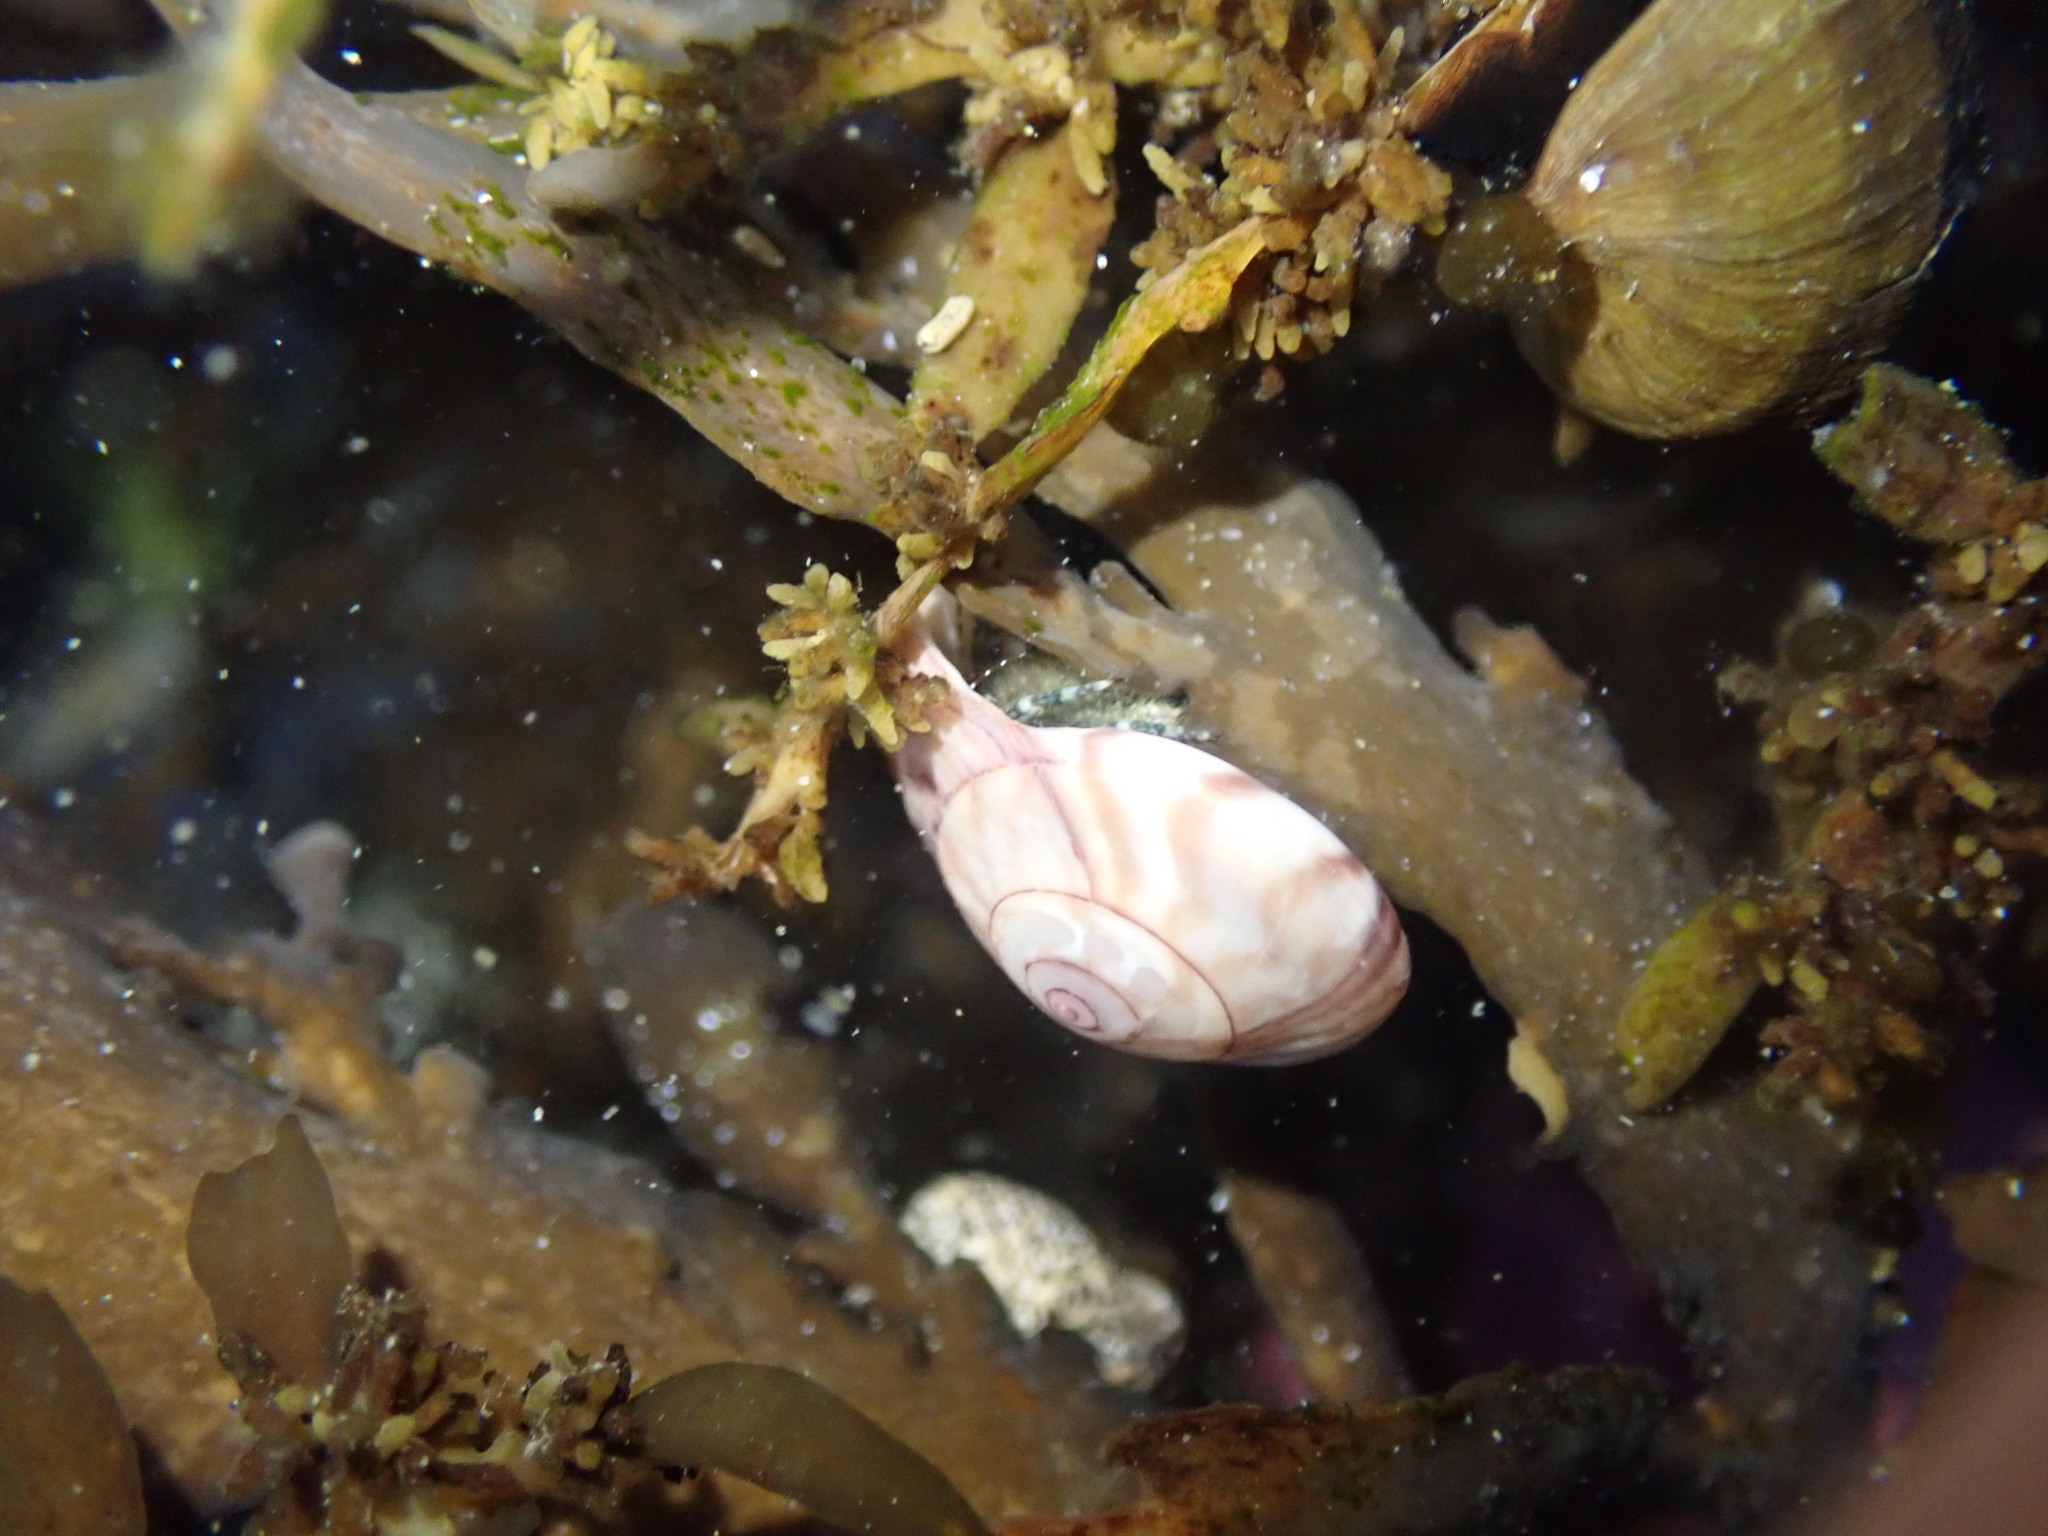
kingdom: Animalia
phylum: Arthropoda
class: Malacostraca
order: Decapoda
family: Paguridae
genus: Pagurus
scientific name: Pagurus traversi
